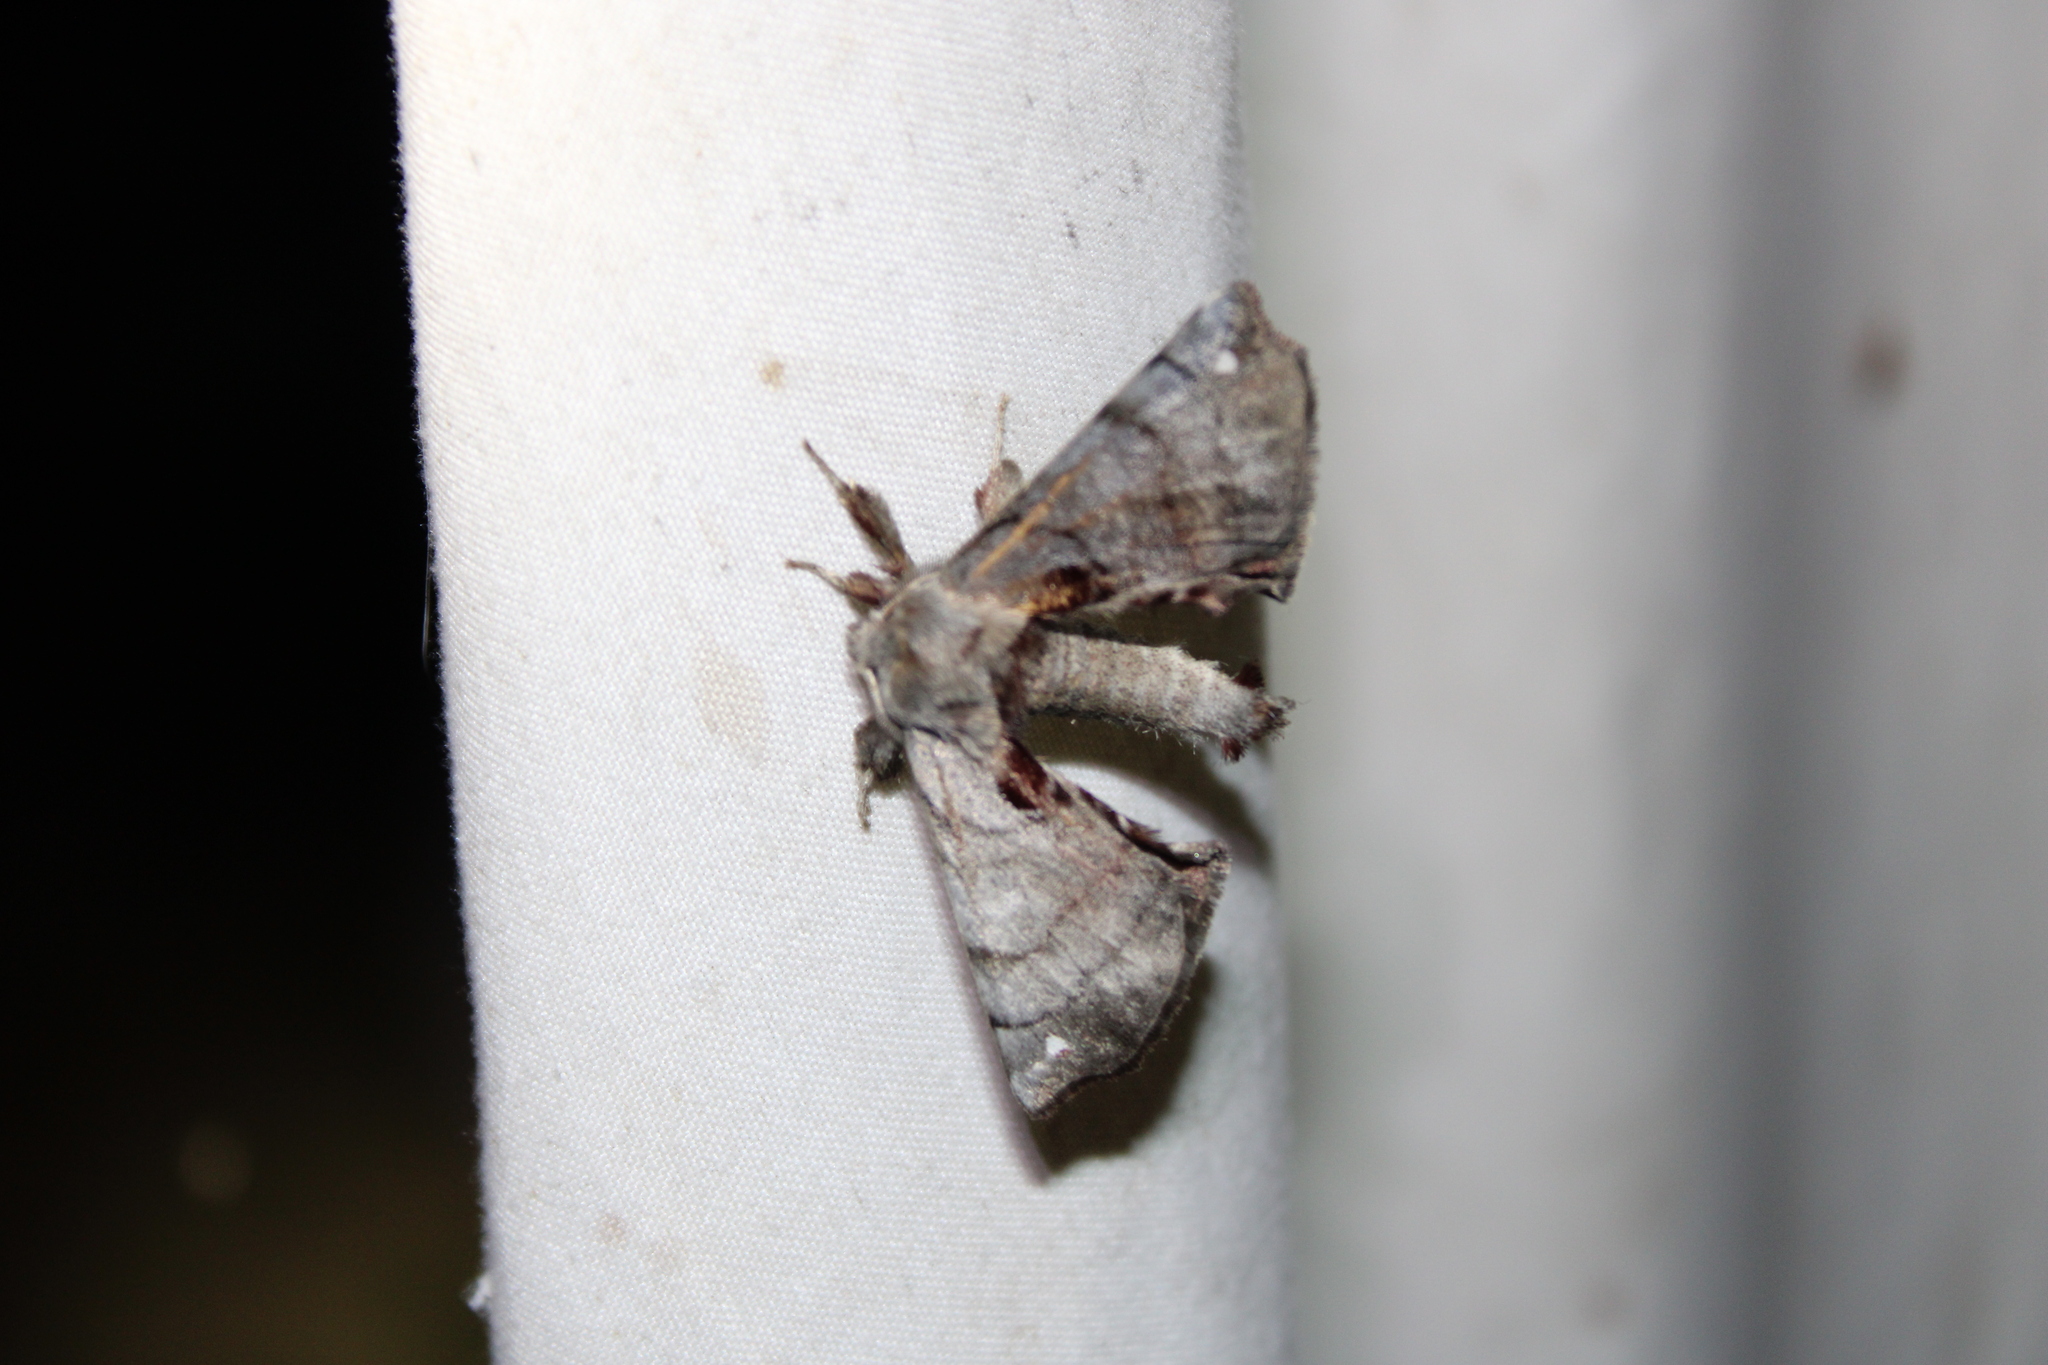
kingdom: Animalia
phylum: Arthropoda
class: Insecta
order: Lepidoptera
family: Apatelodidae
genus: Hygrochroa
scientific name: Hygrochroa Apatelodes torrefacta
